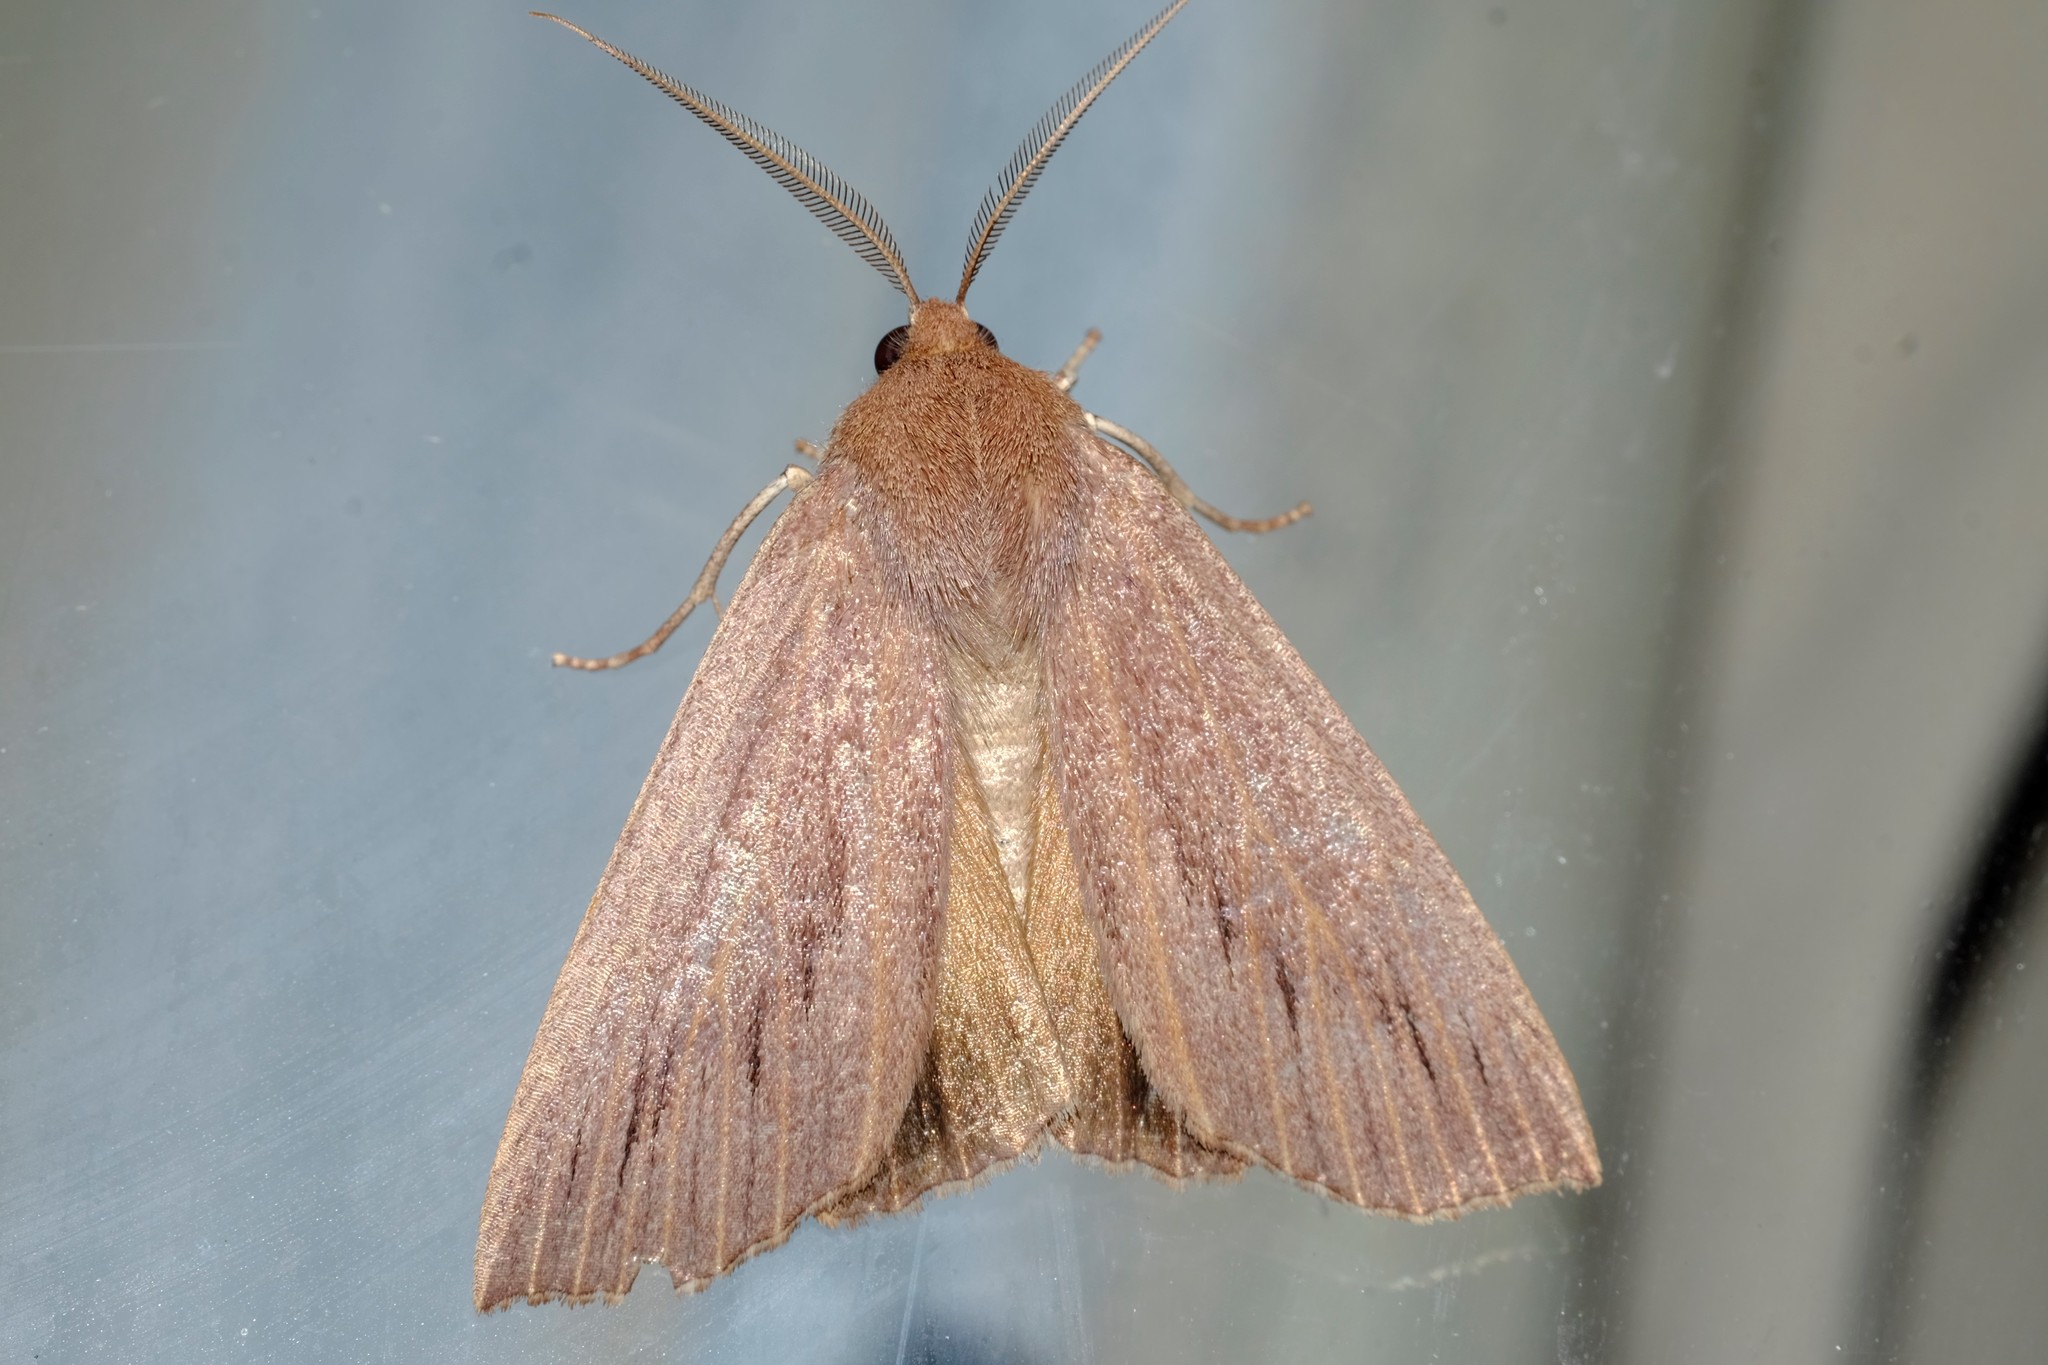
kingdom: Animalia
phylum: Arthropoda
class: Insecta
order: Lepidoptera
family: Geometridae
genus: Palleopa
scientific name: Palleopa innotata
